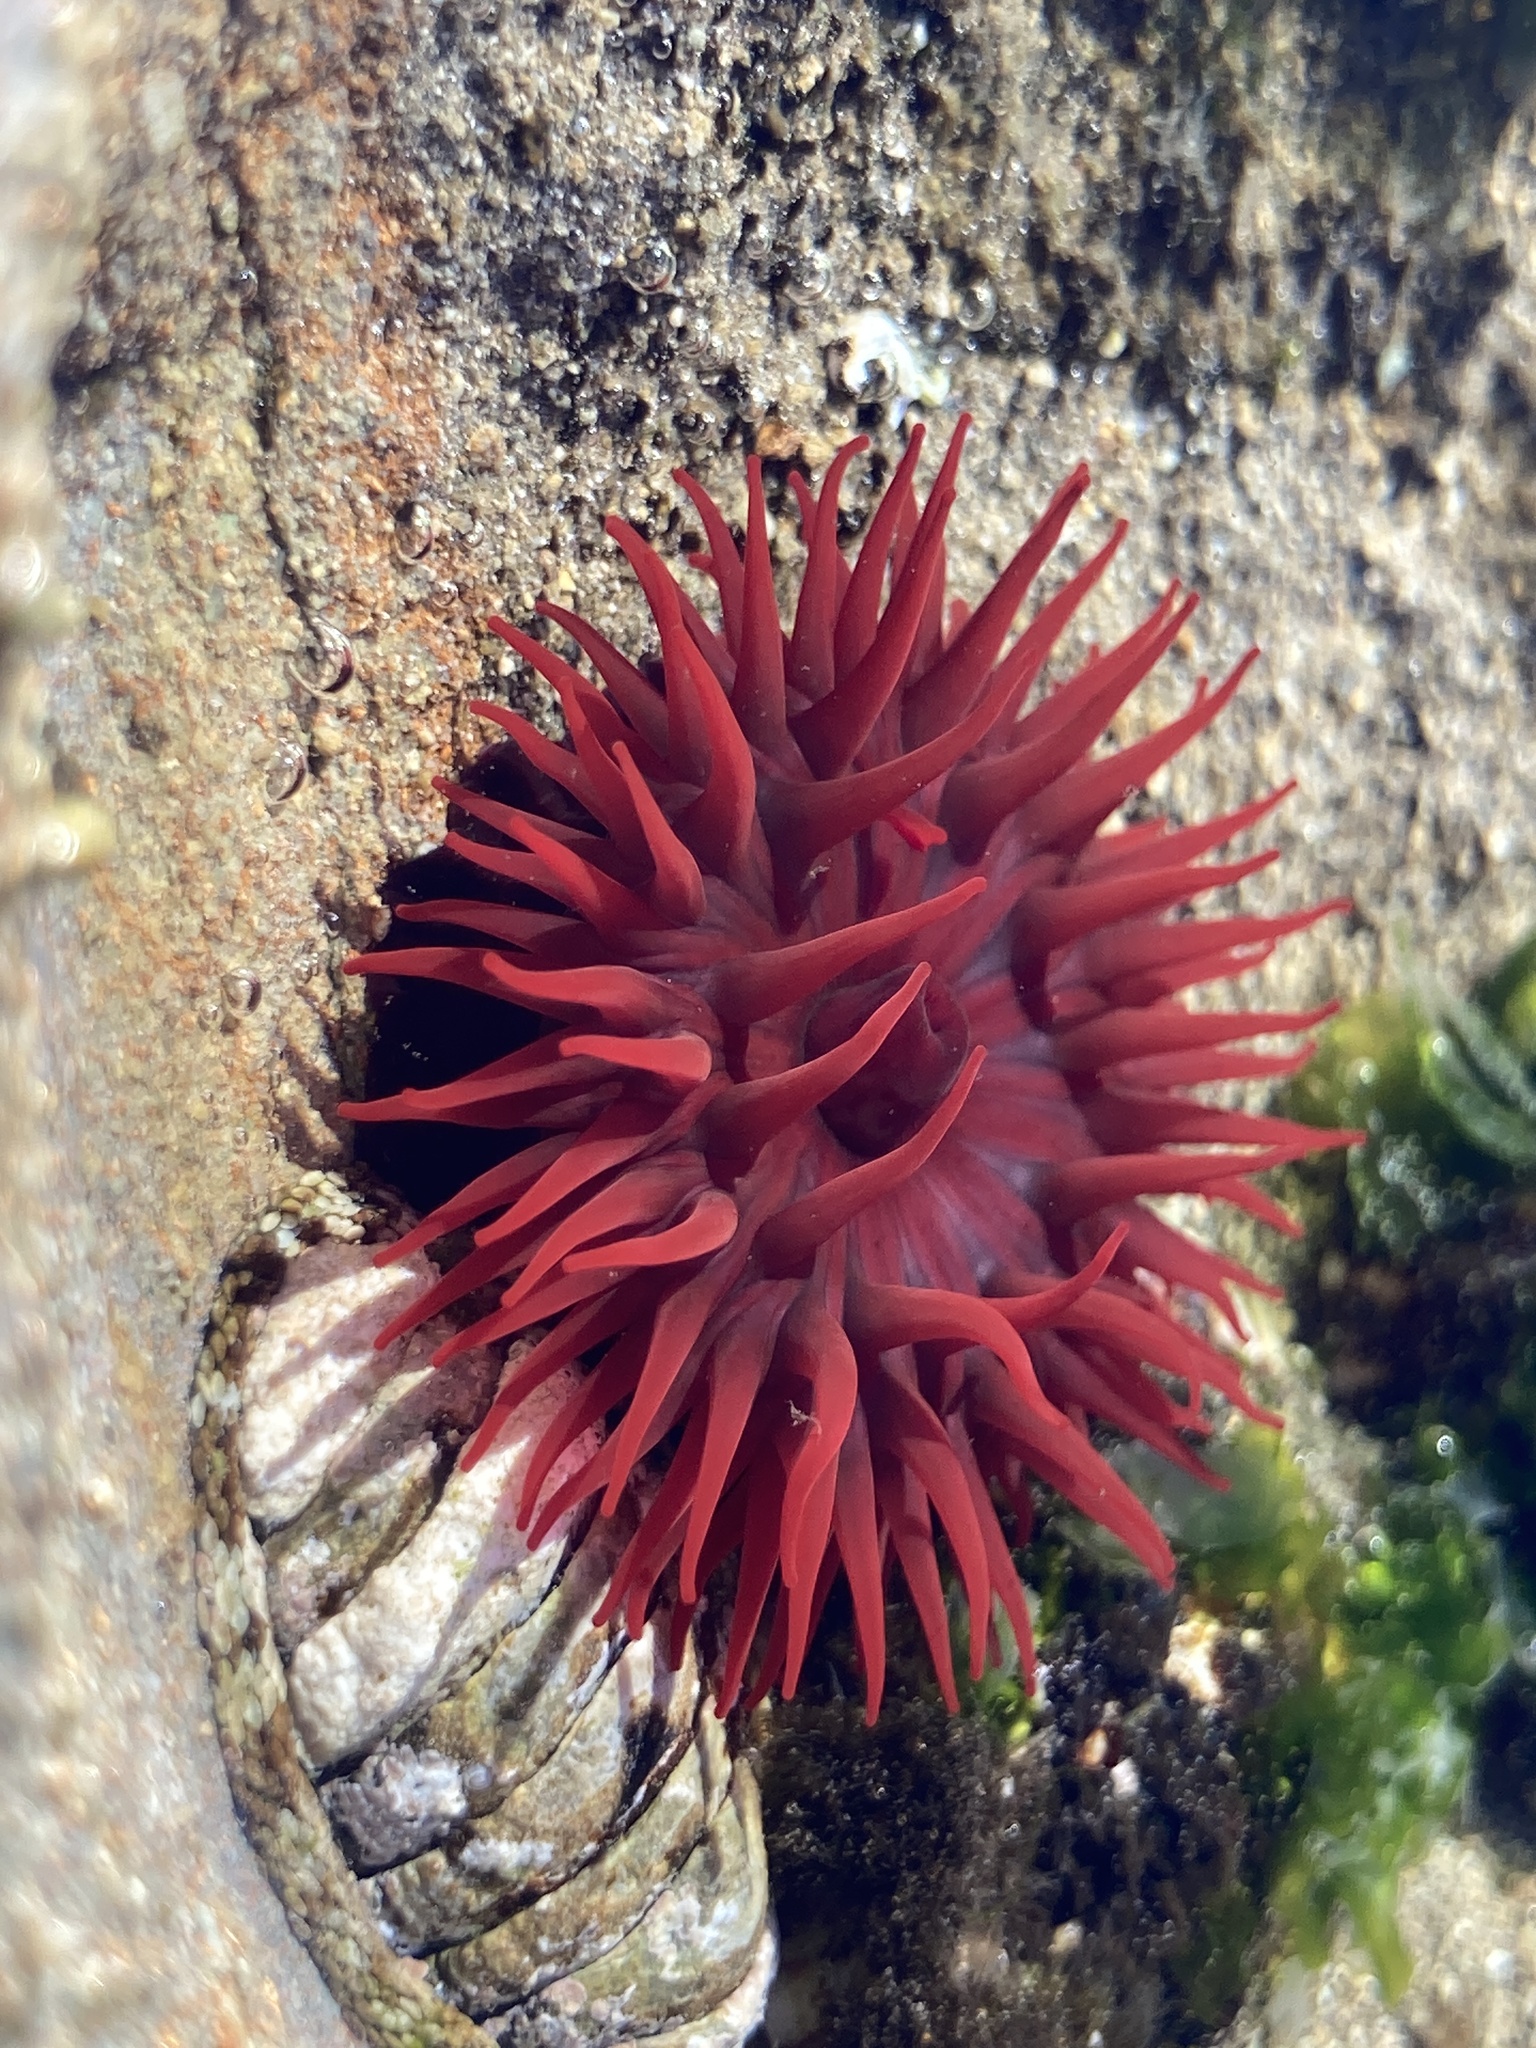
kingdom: Animalia
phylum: Cnidaria
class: Anthozoa
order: Actiniaria
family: Actiniidae
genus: Actinia
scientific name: Actinia tenebrosa
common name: Waratah anemone
